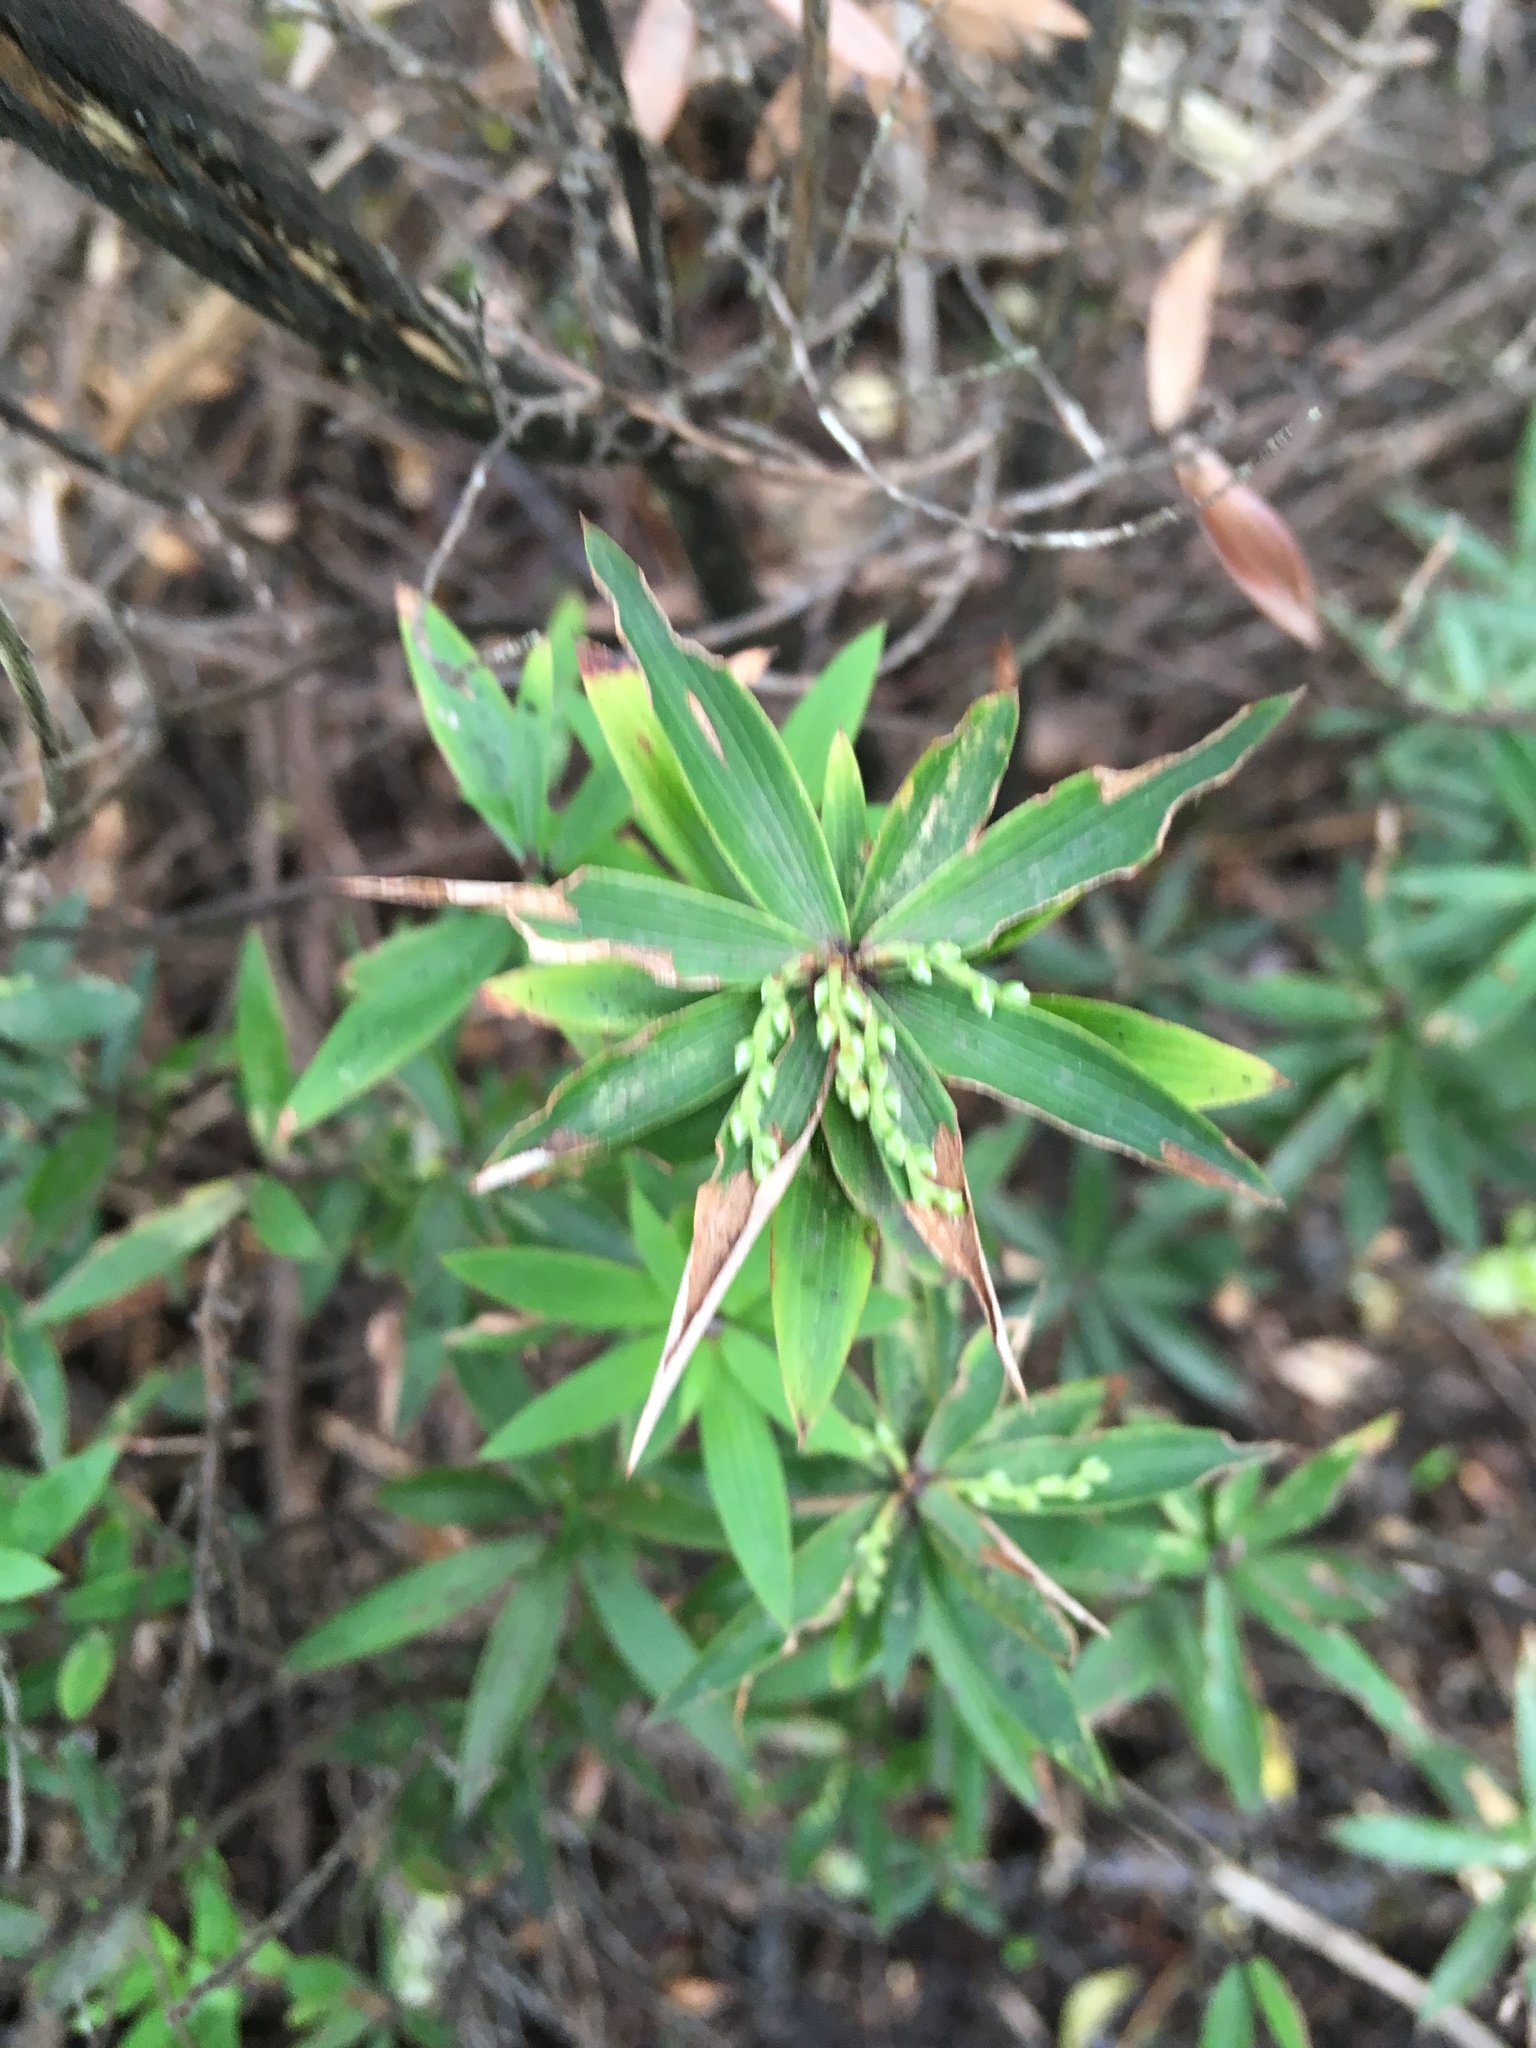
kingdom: Plantae
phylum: Tracheophyta
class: Magnoliopsida
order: Ericales
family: Ericaceae
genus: Leucopogon
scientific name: Leucopogon fasciculatus
